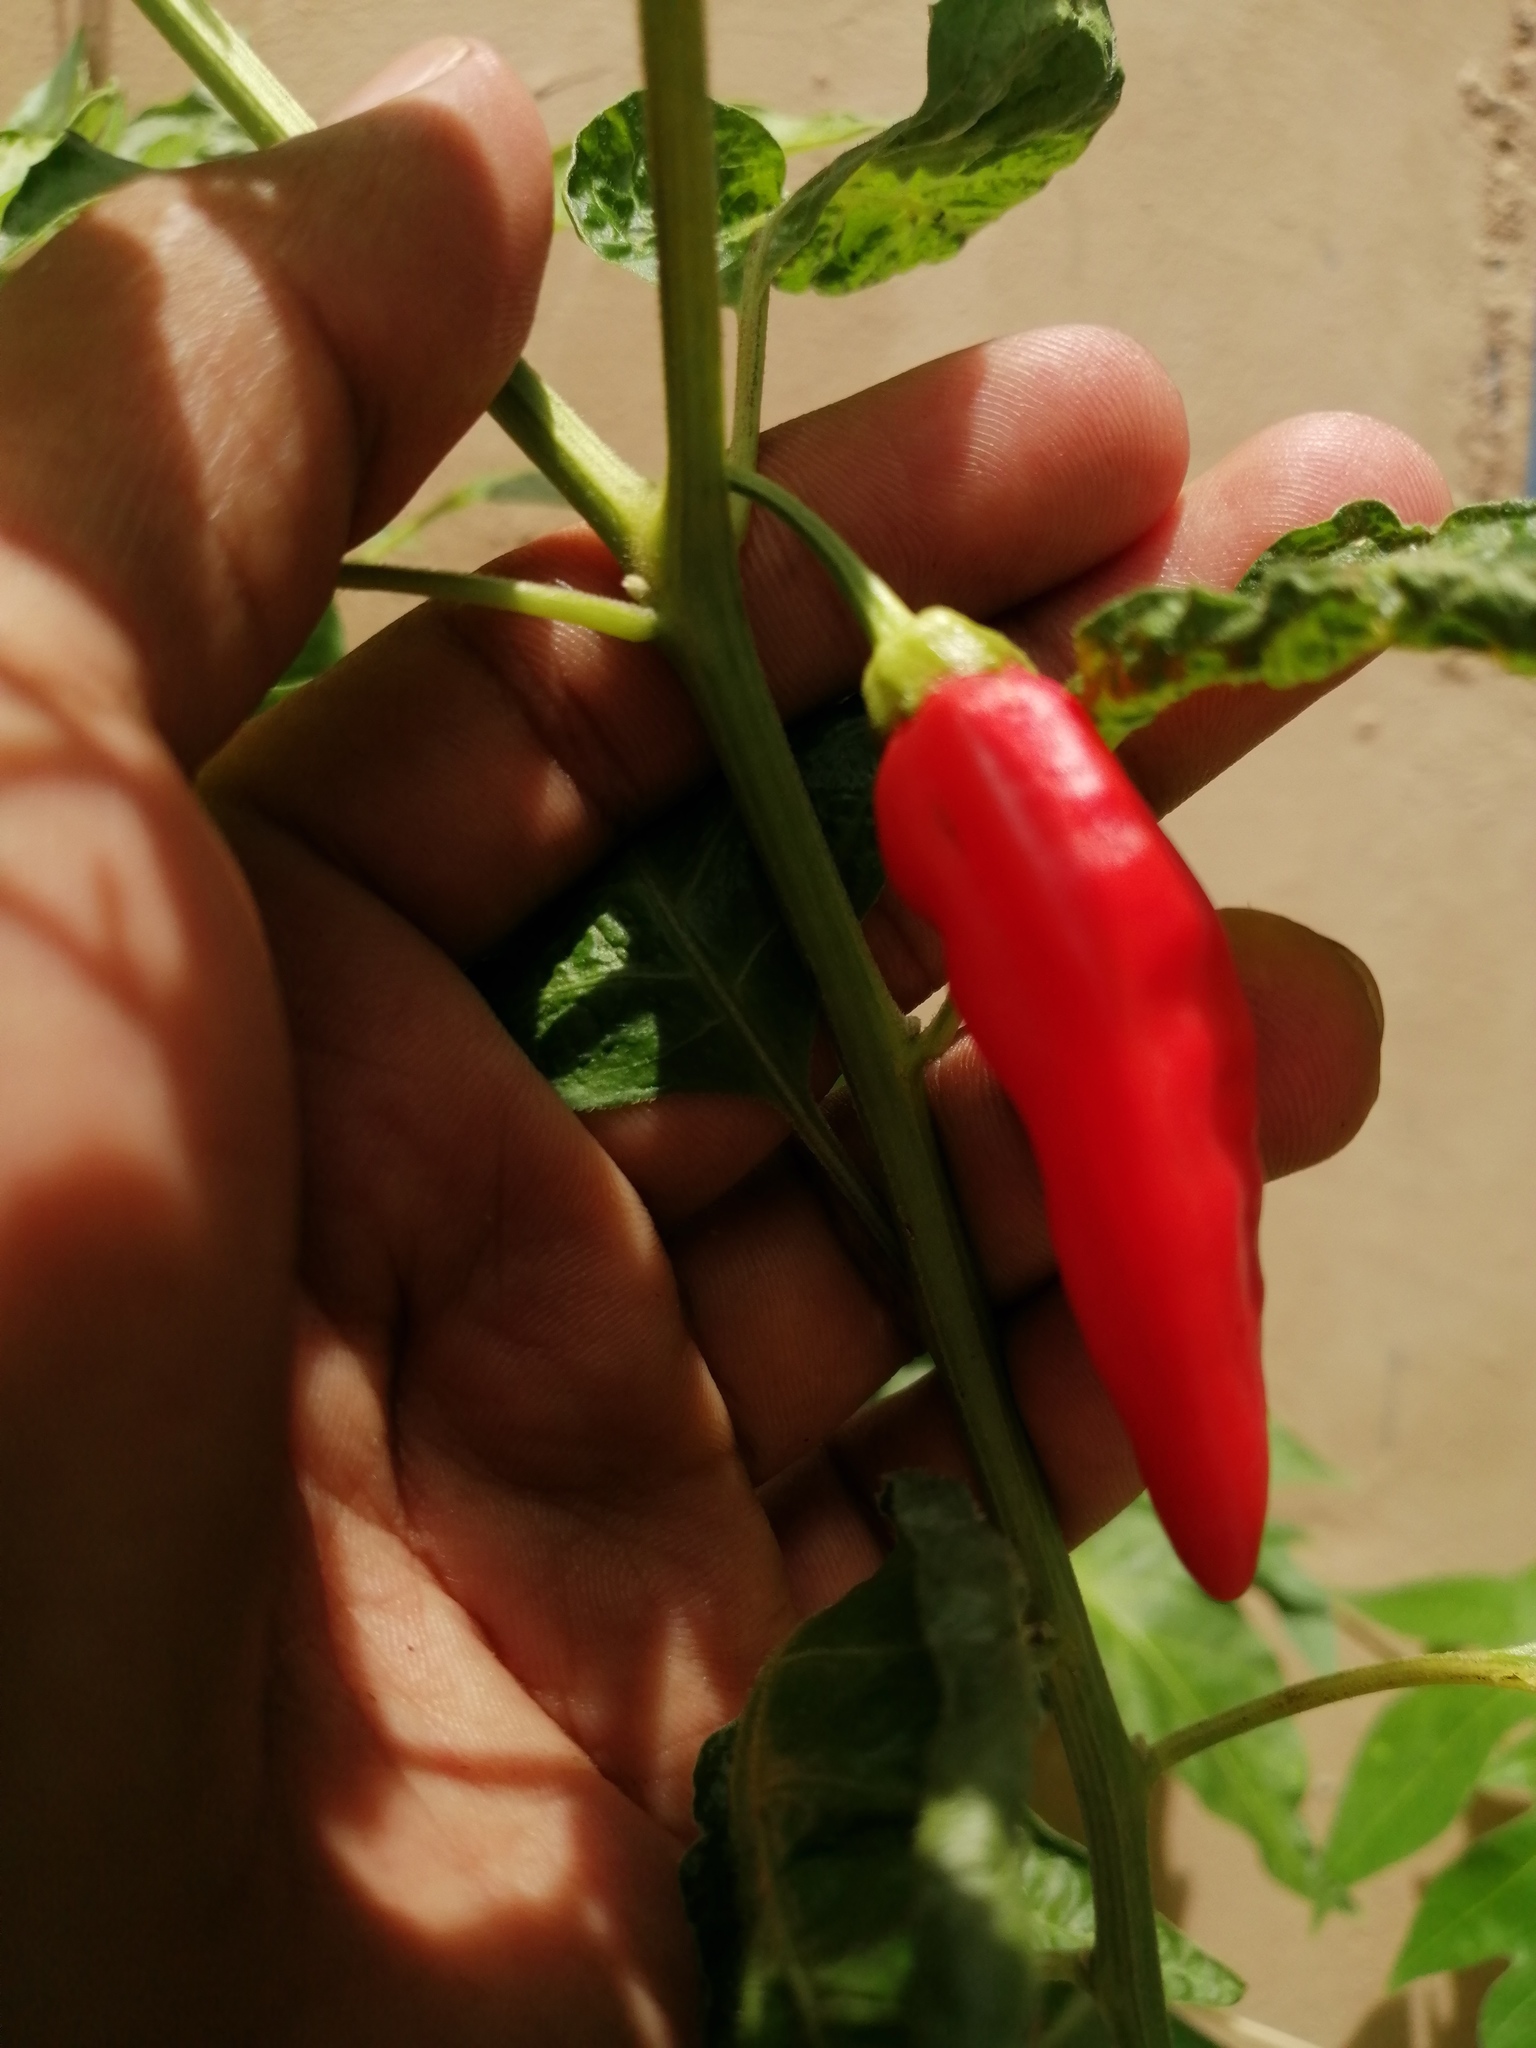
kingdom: Plantae
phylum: Tracheophyta
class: Magnoliopsida
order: Solanales
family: Solanaceae
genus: Capsicum
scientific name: Capsicum annuum
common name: Sweet pepper
